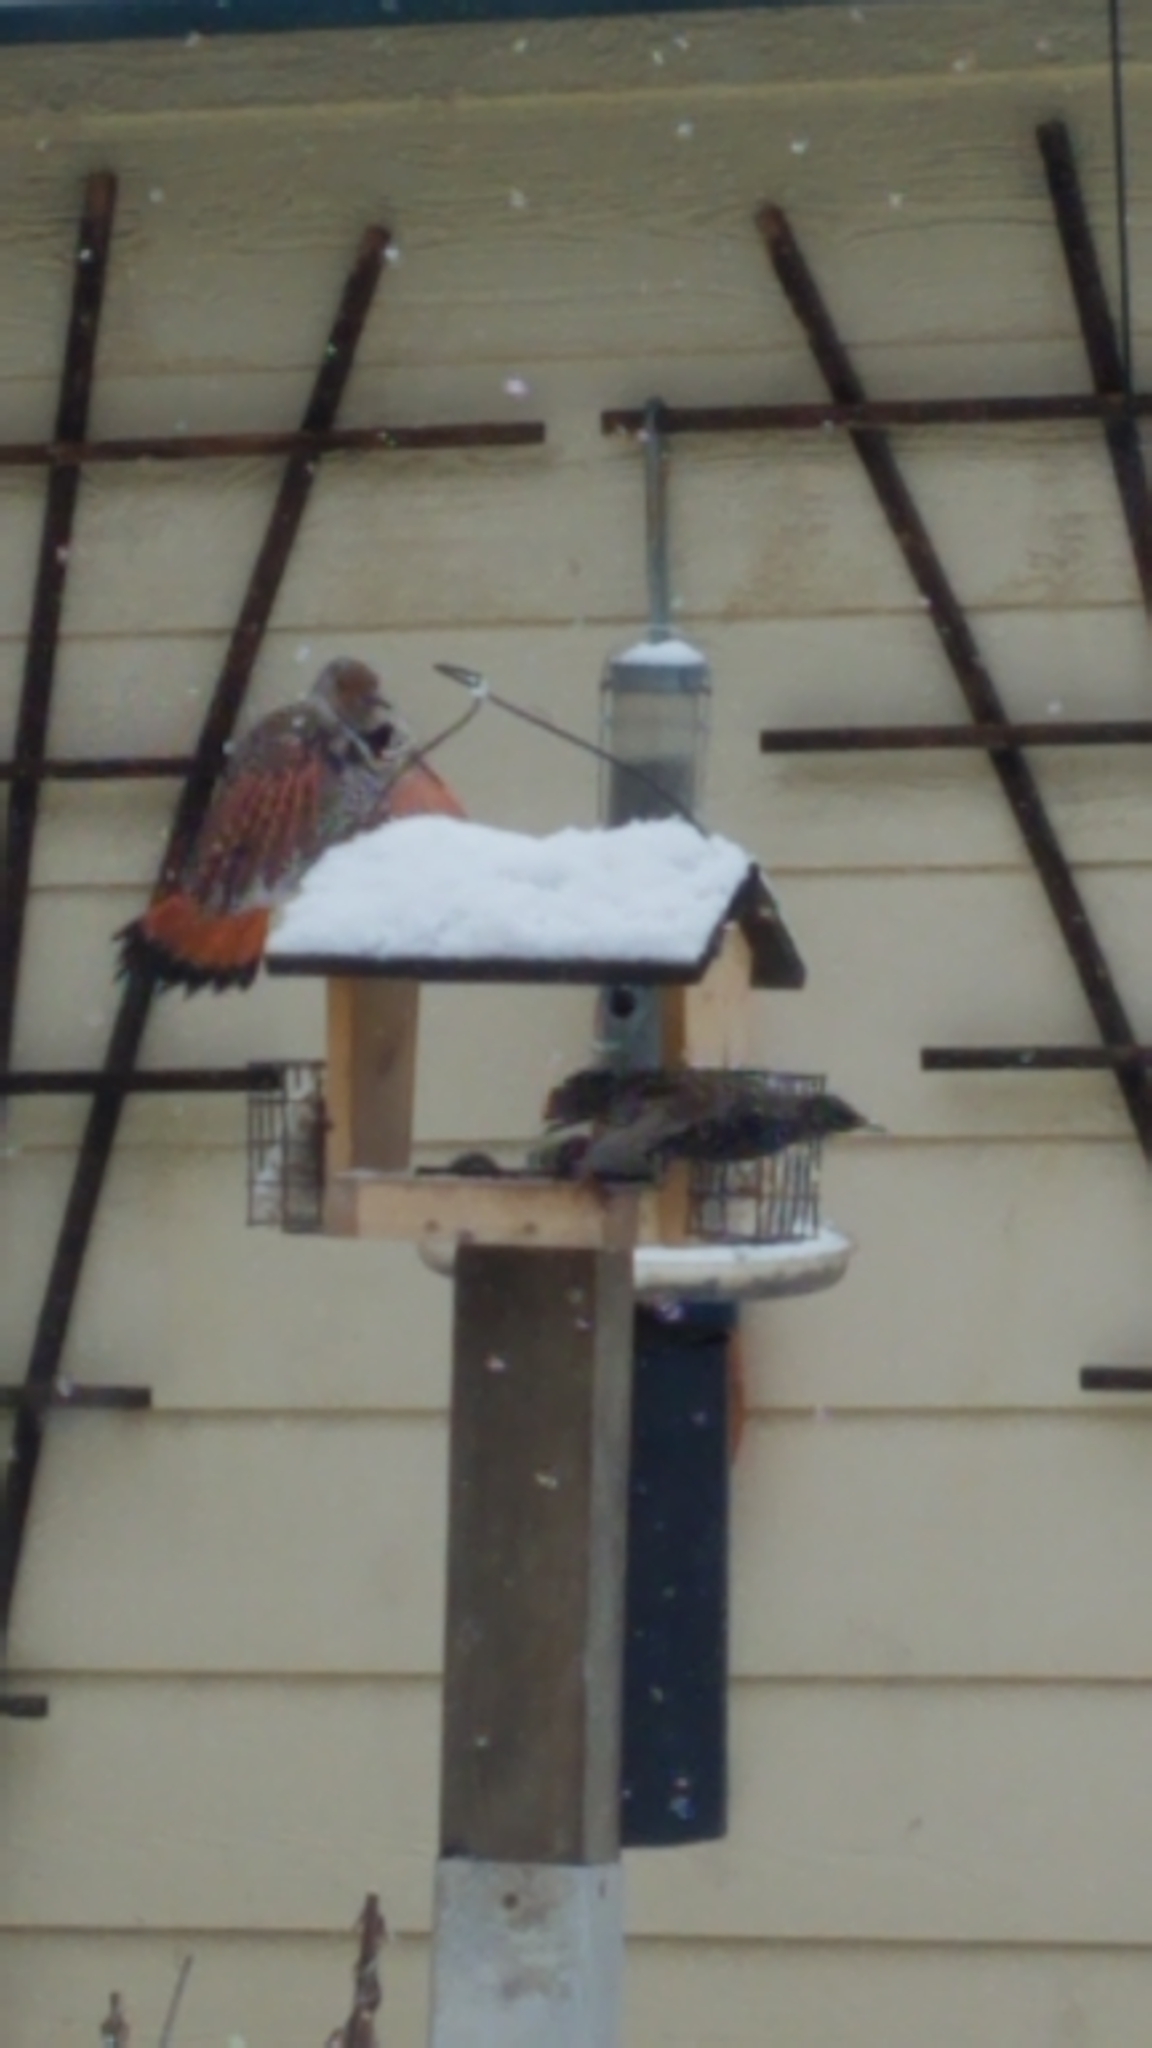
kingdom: Animalia
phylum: Chordata
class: Aves
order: Piciformes
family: Picidae
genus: Colaptes
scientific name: Colaptes auratus
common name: Northern flicker
